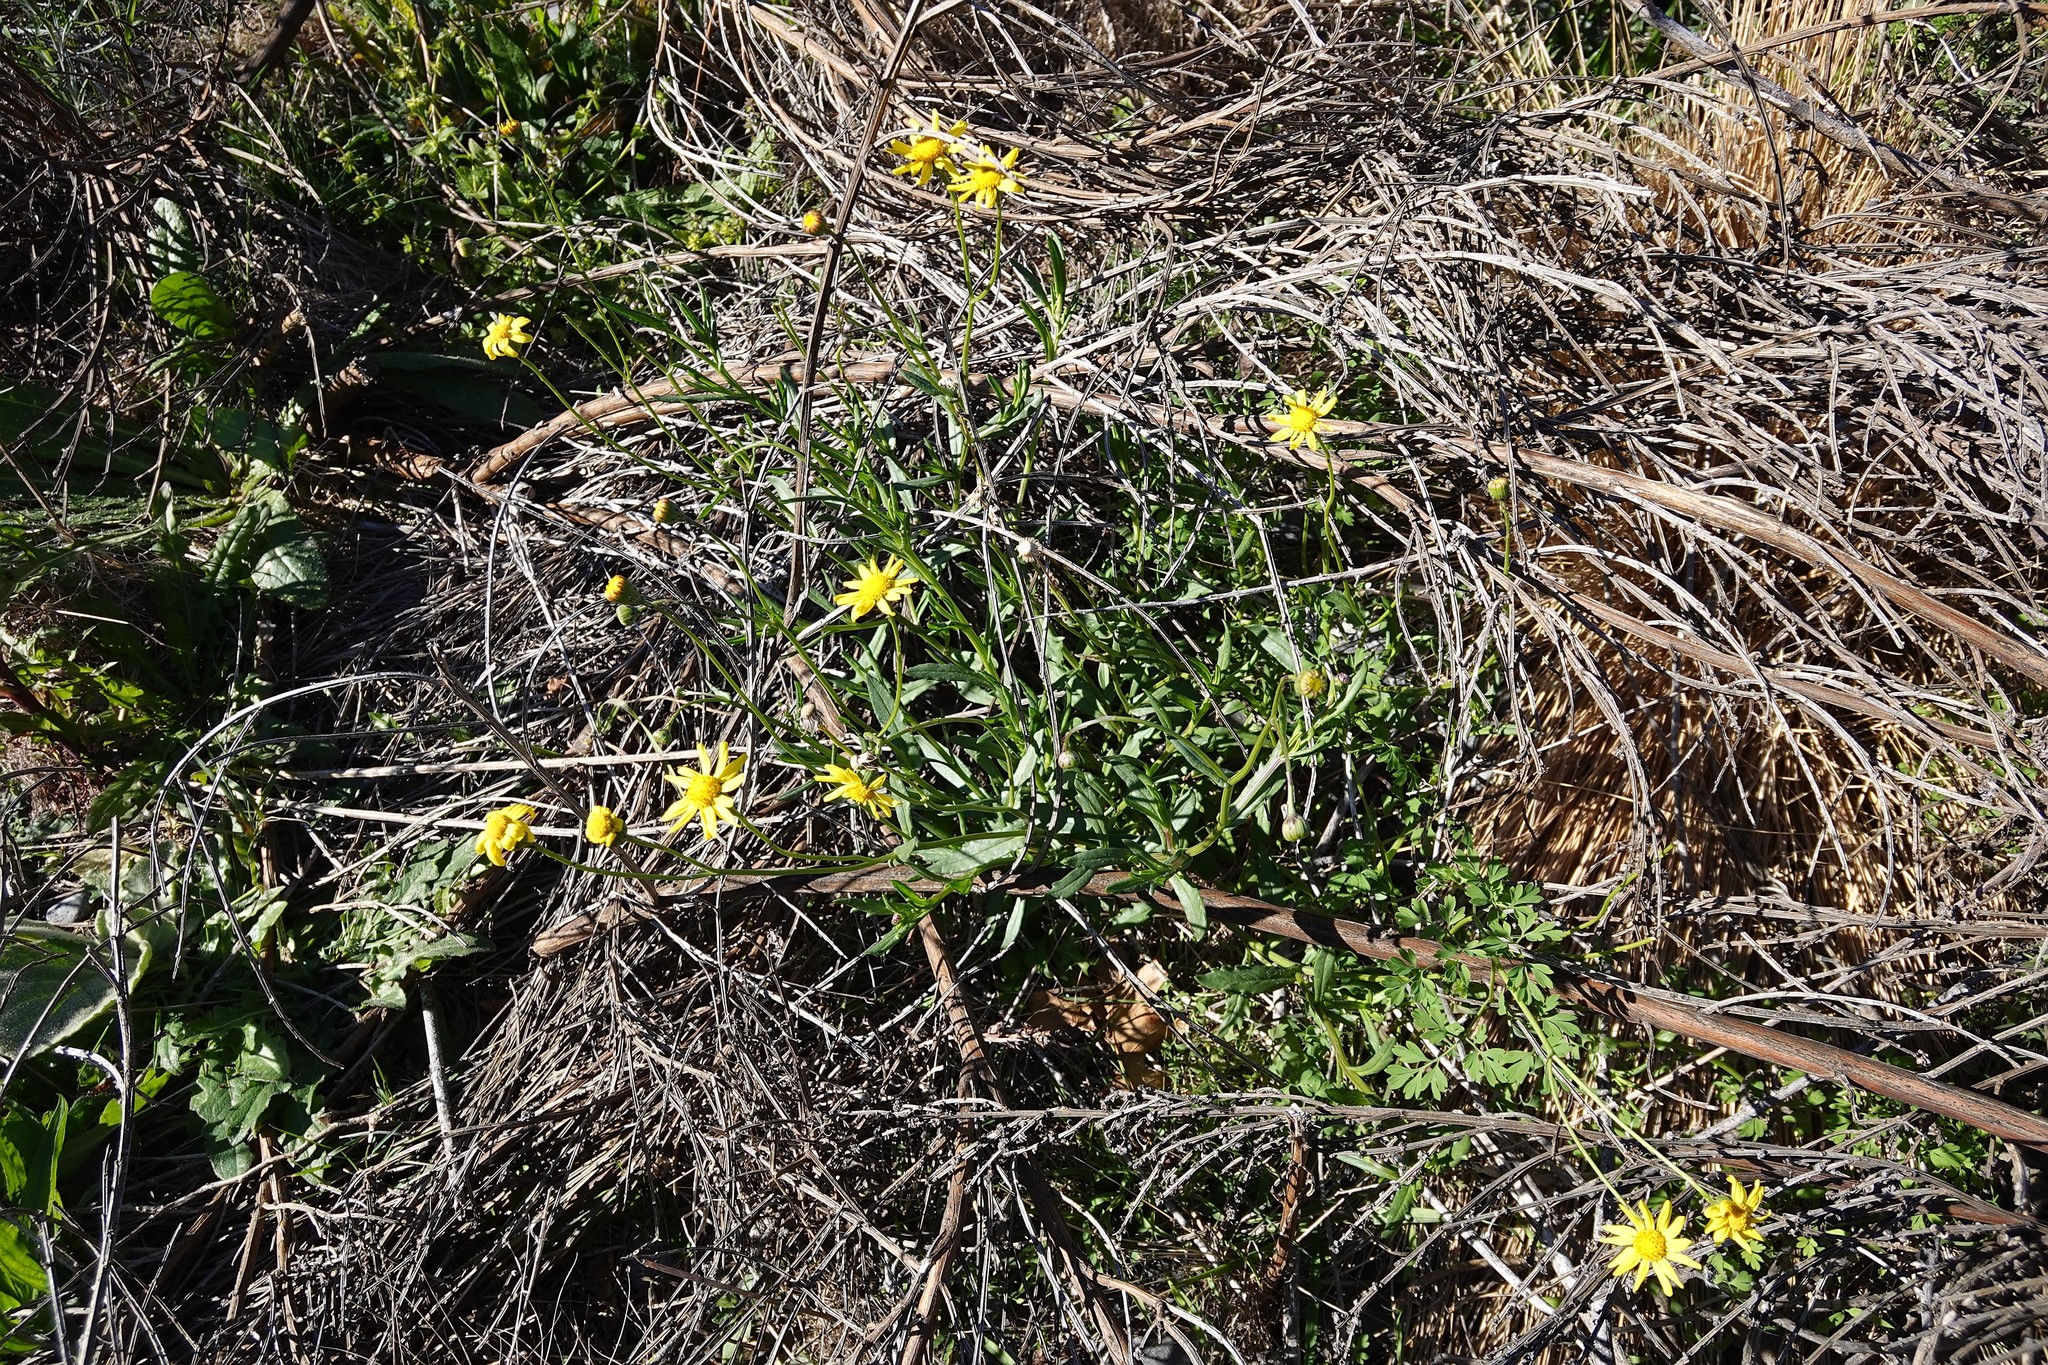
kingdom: Plantae
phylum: Tracheophyta
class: Magnoliopsida
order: Asterales
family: Asteraceae
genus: Senecio
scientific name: Senecio skirrhodon
